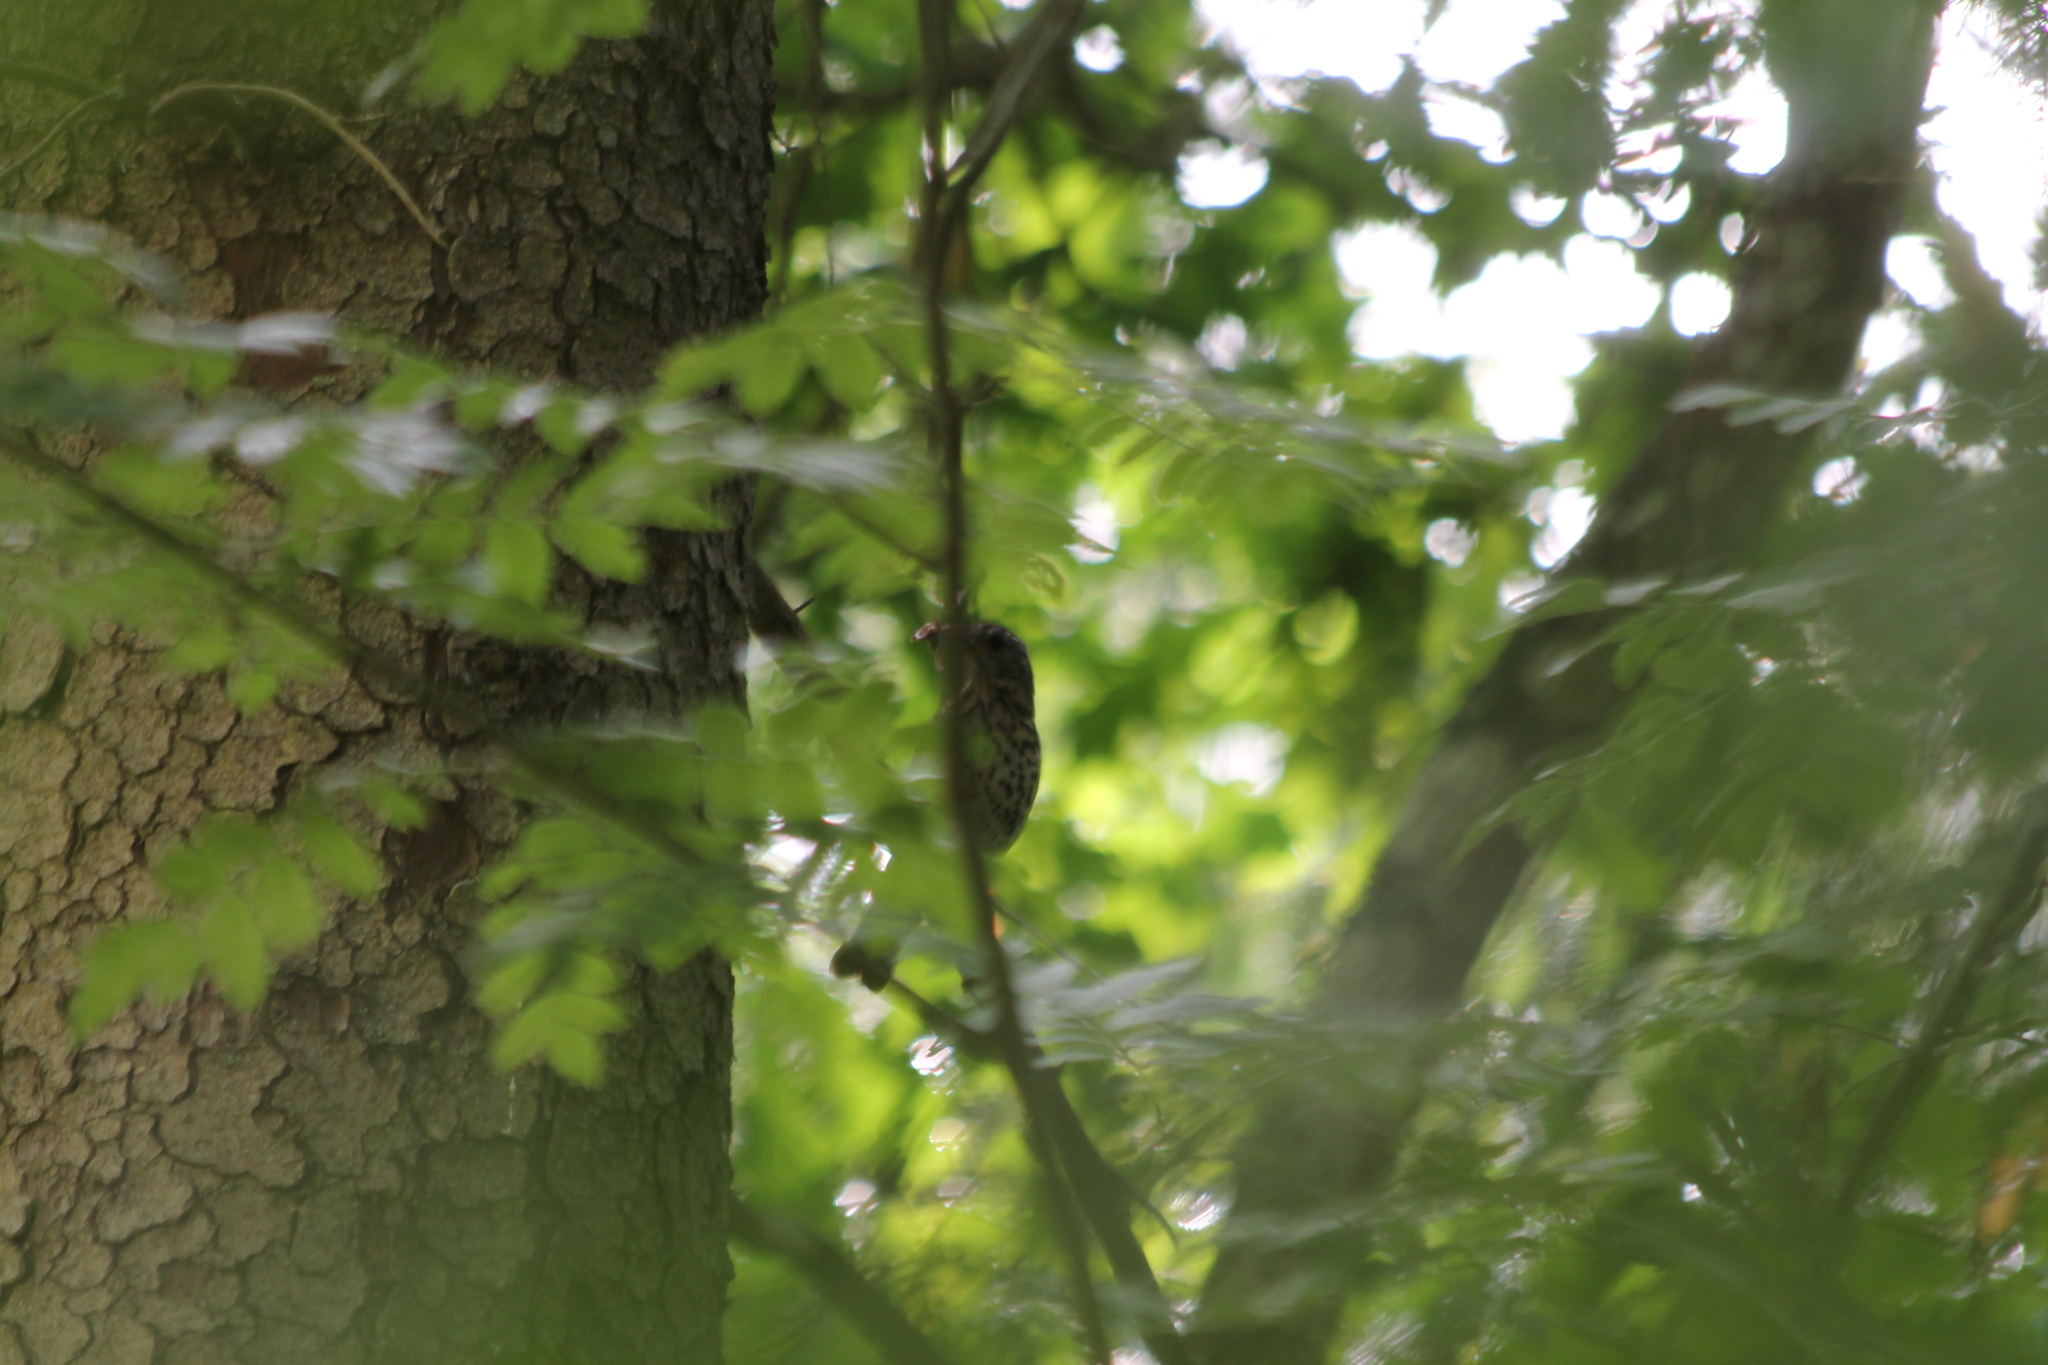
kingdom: Animalia
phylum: Chordata
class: Aves
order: Passeriformes
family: Turdidae
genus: Turdus
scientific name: Turdus philomelos
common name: Song thrush
